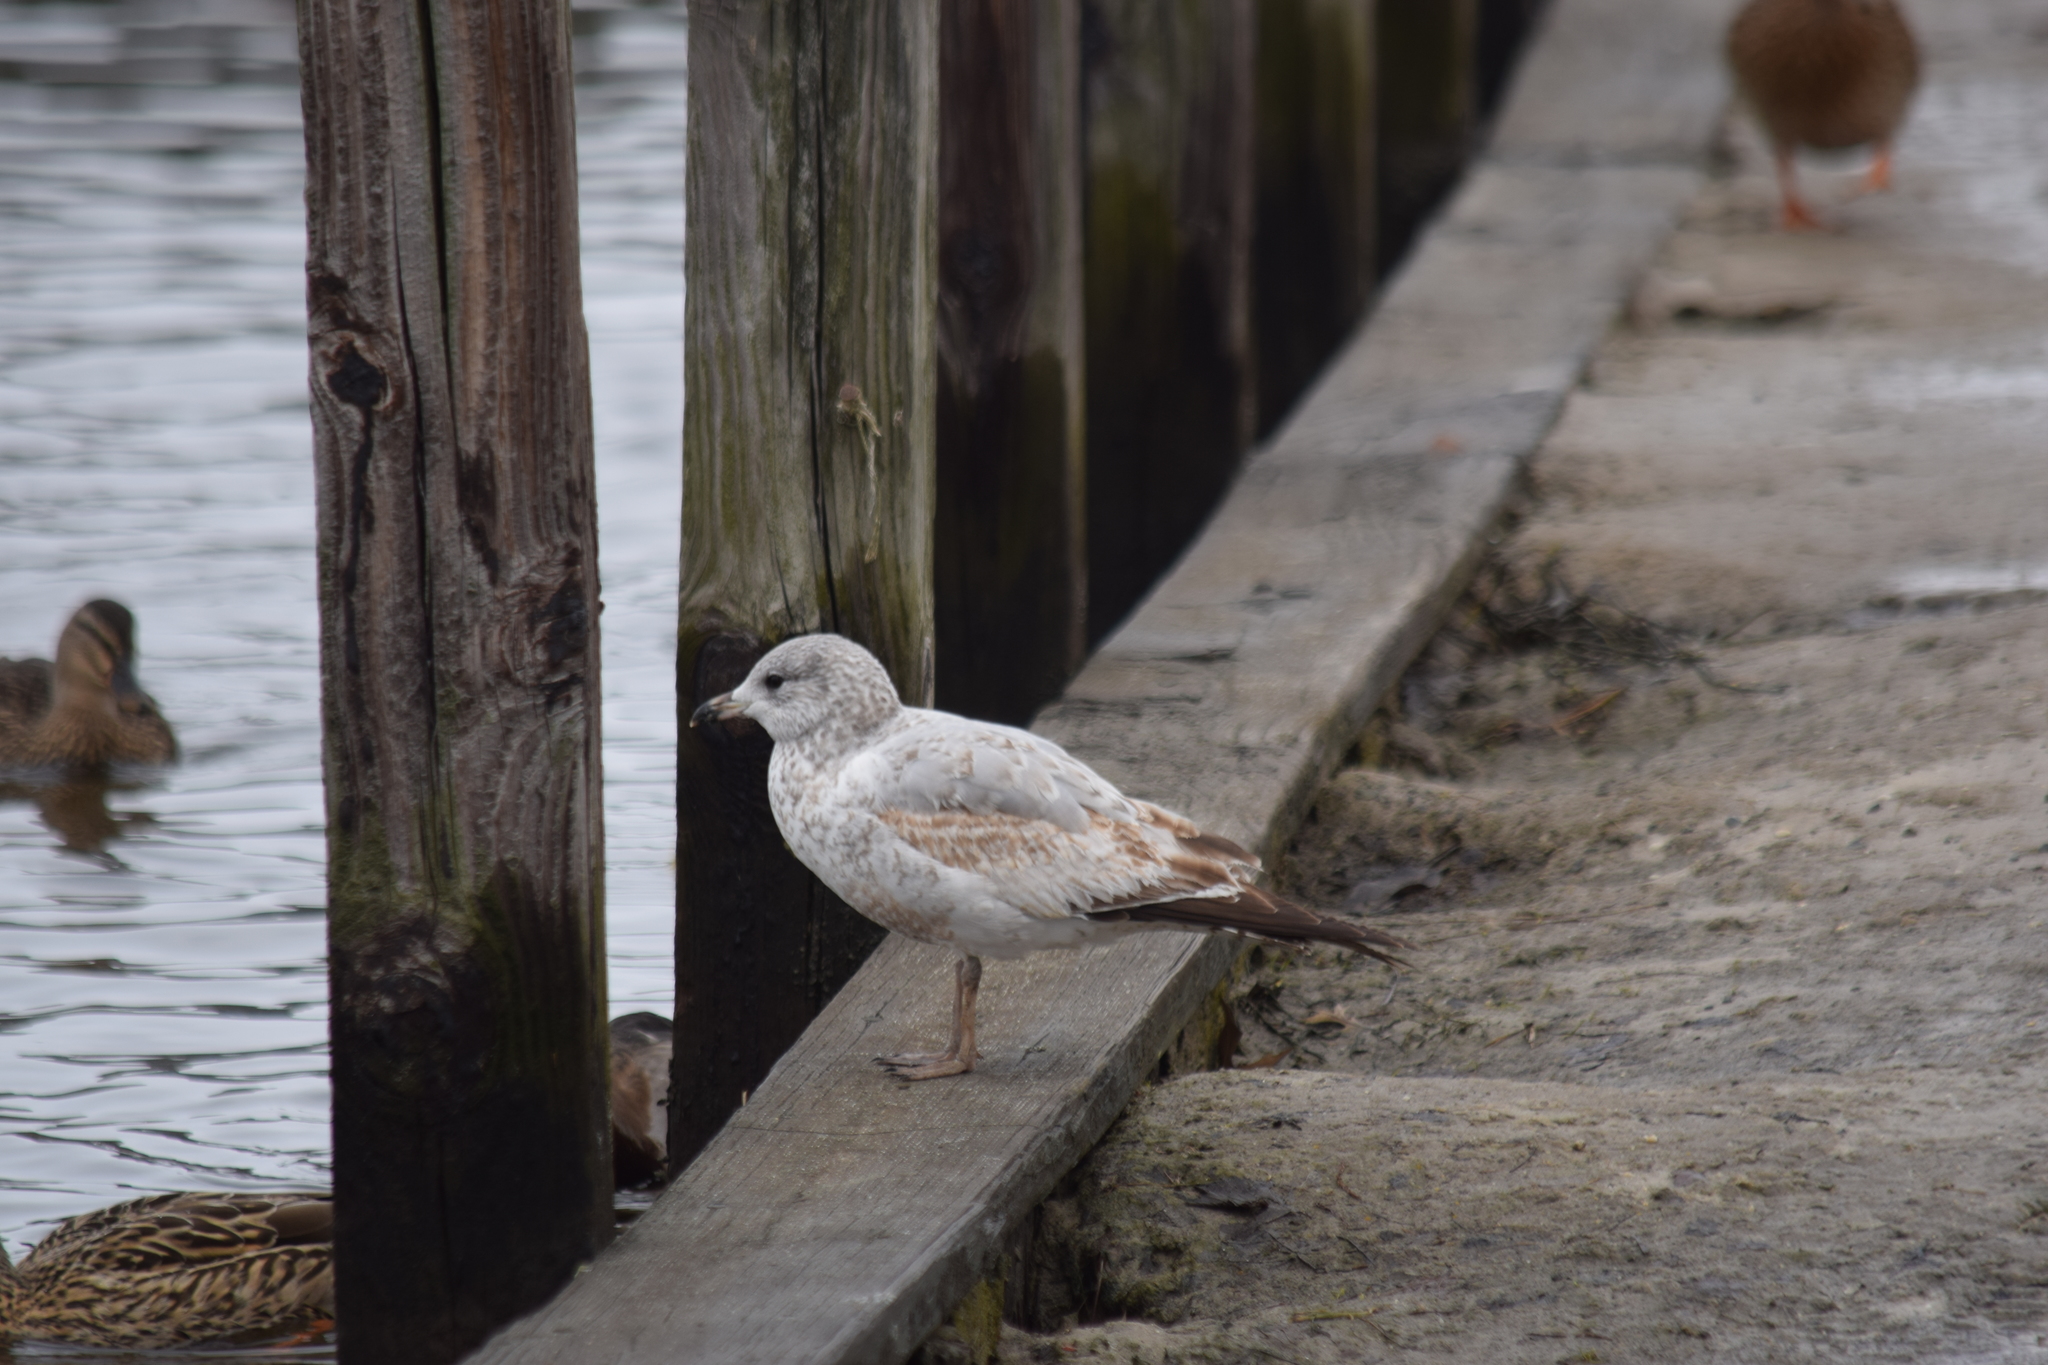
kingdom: Animalia
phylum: Chordata
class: Aves
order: Charadriiformes
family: Laridae
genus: Larus
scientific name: Larus delawarensis
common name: Ring-billed gull
